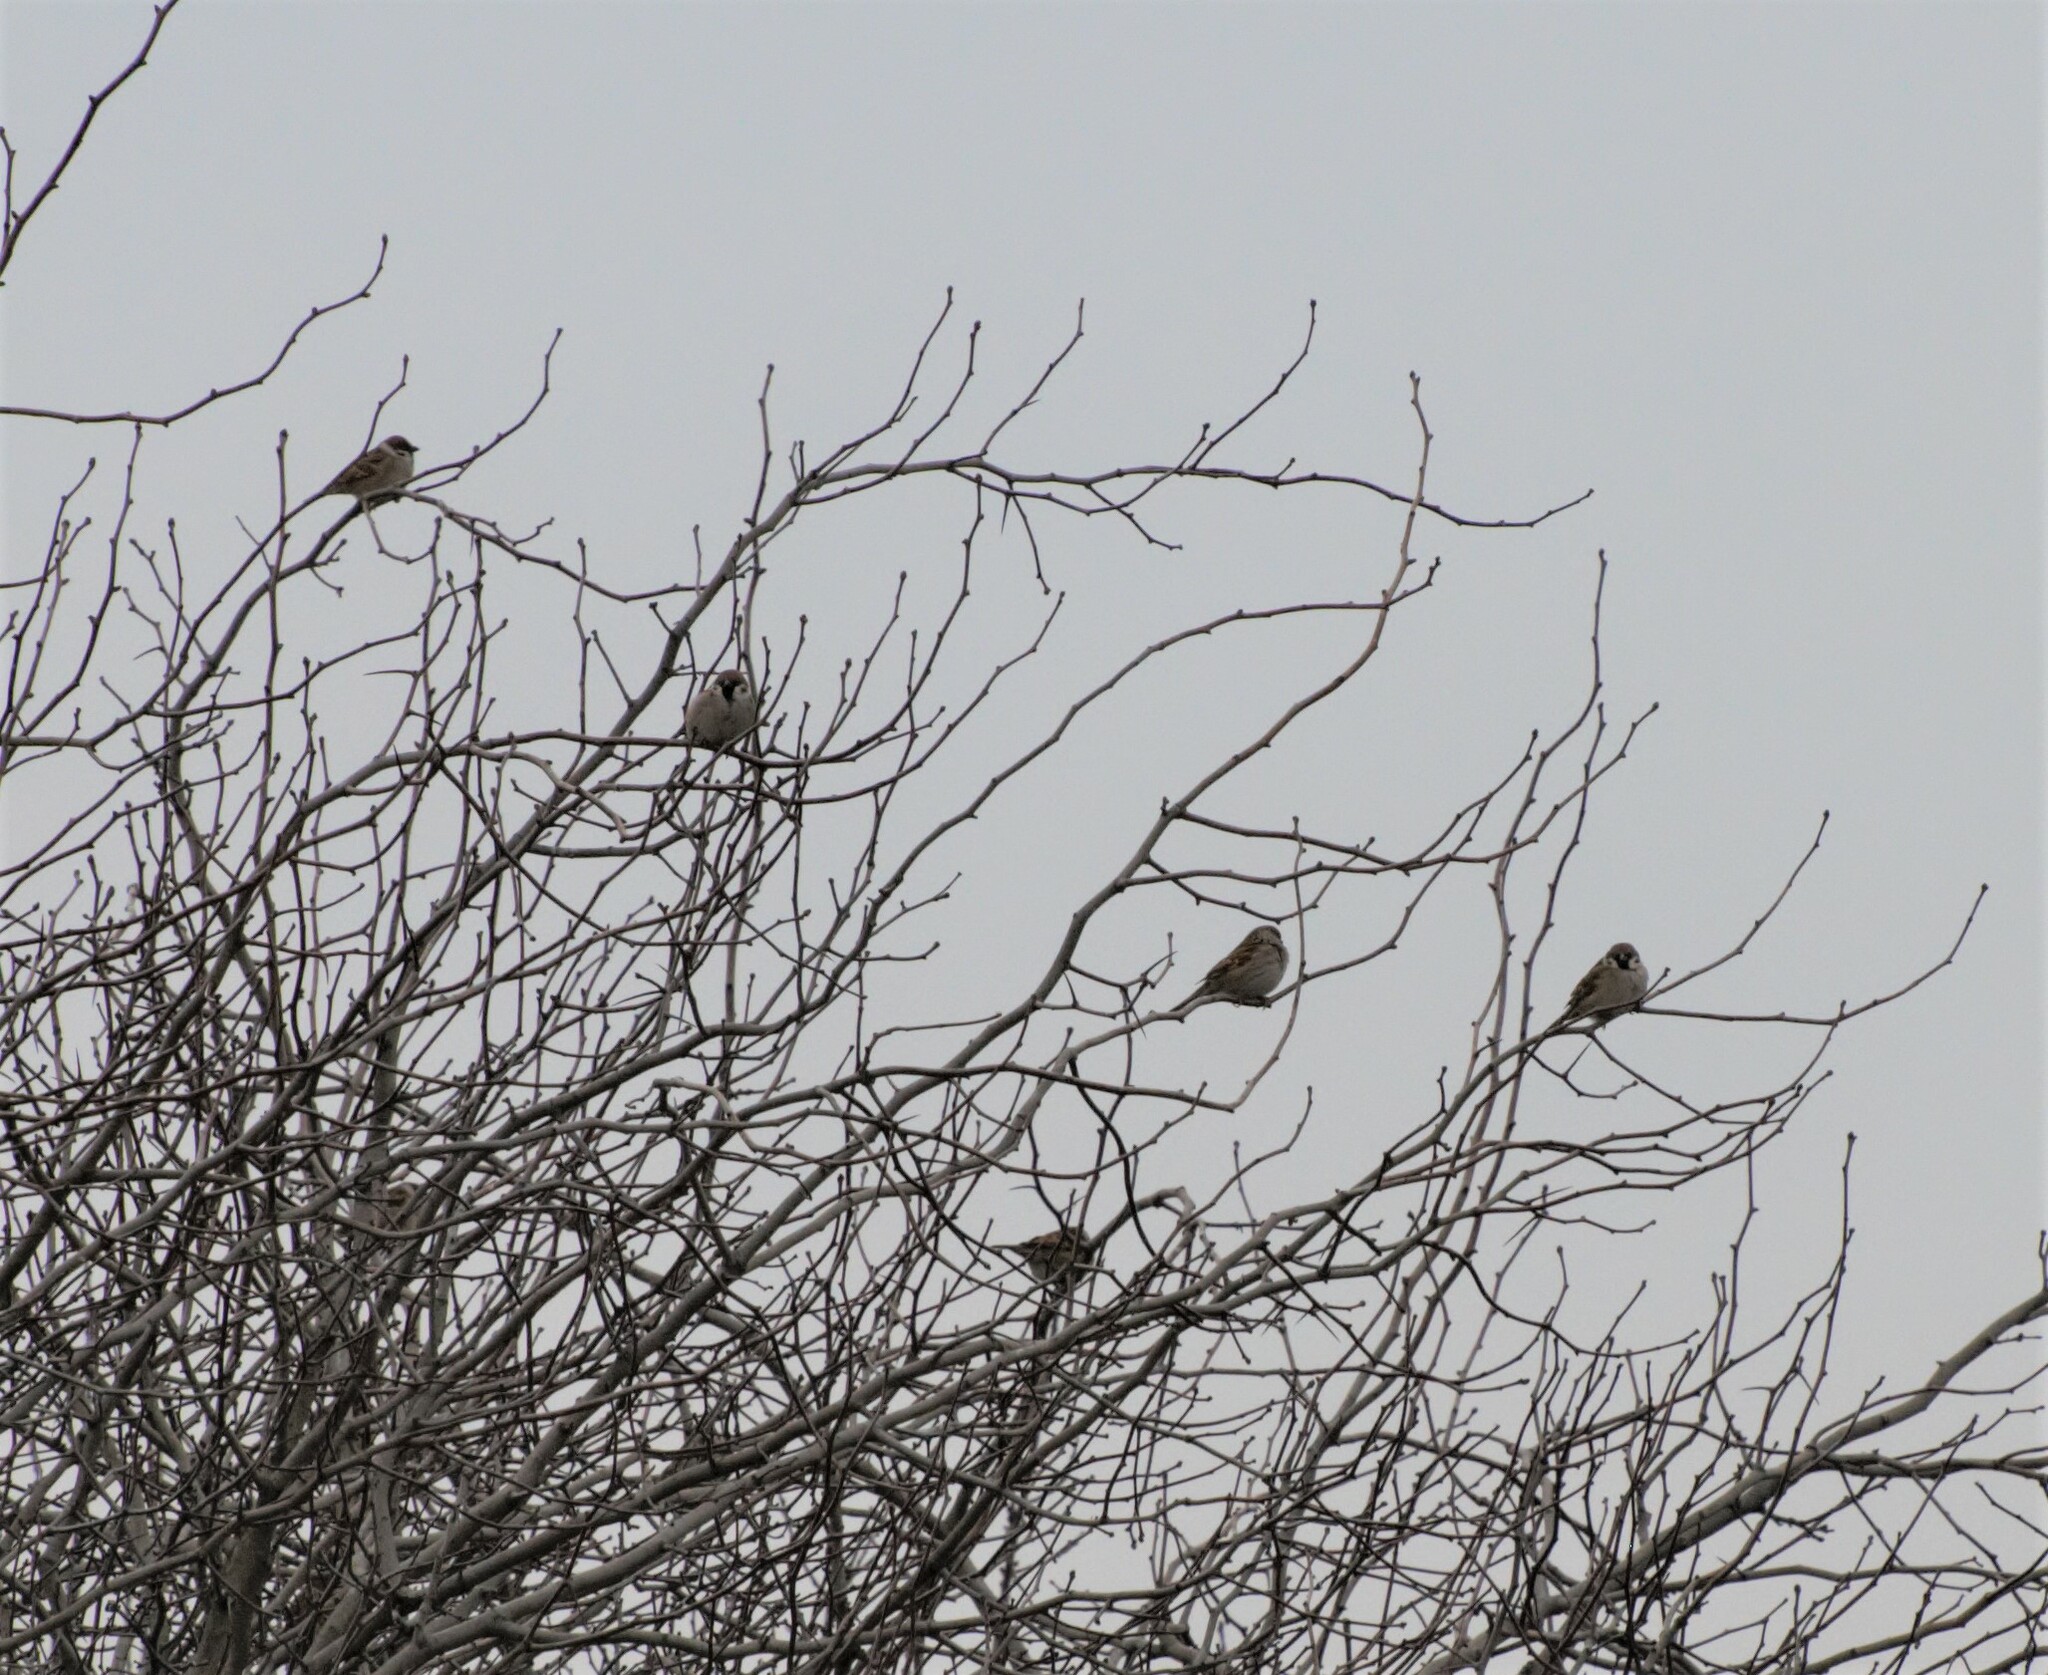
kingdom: Animalia
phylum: Chordata
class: Aves
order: Passeriformes
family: Passeridae
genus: Passer
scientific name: Passer montanus
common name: Eurasian tree sparrow
